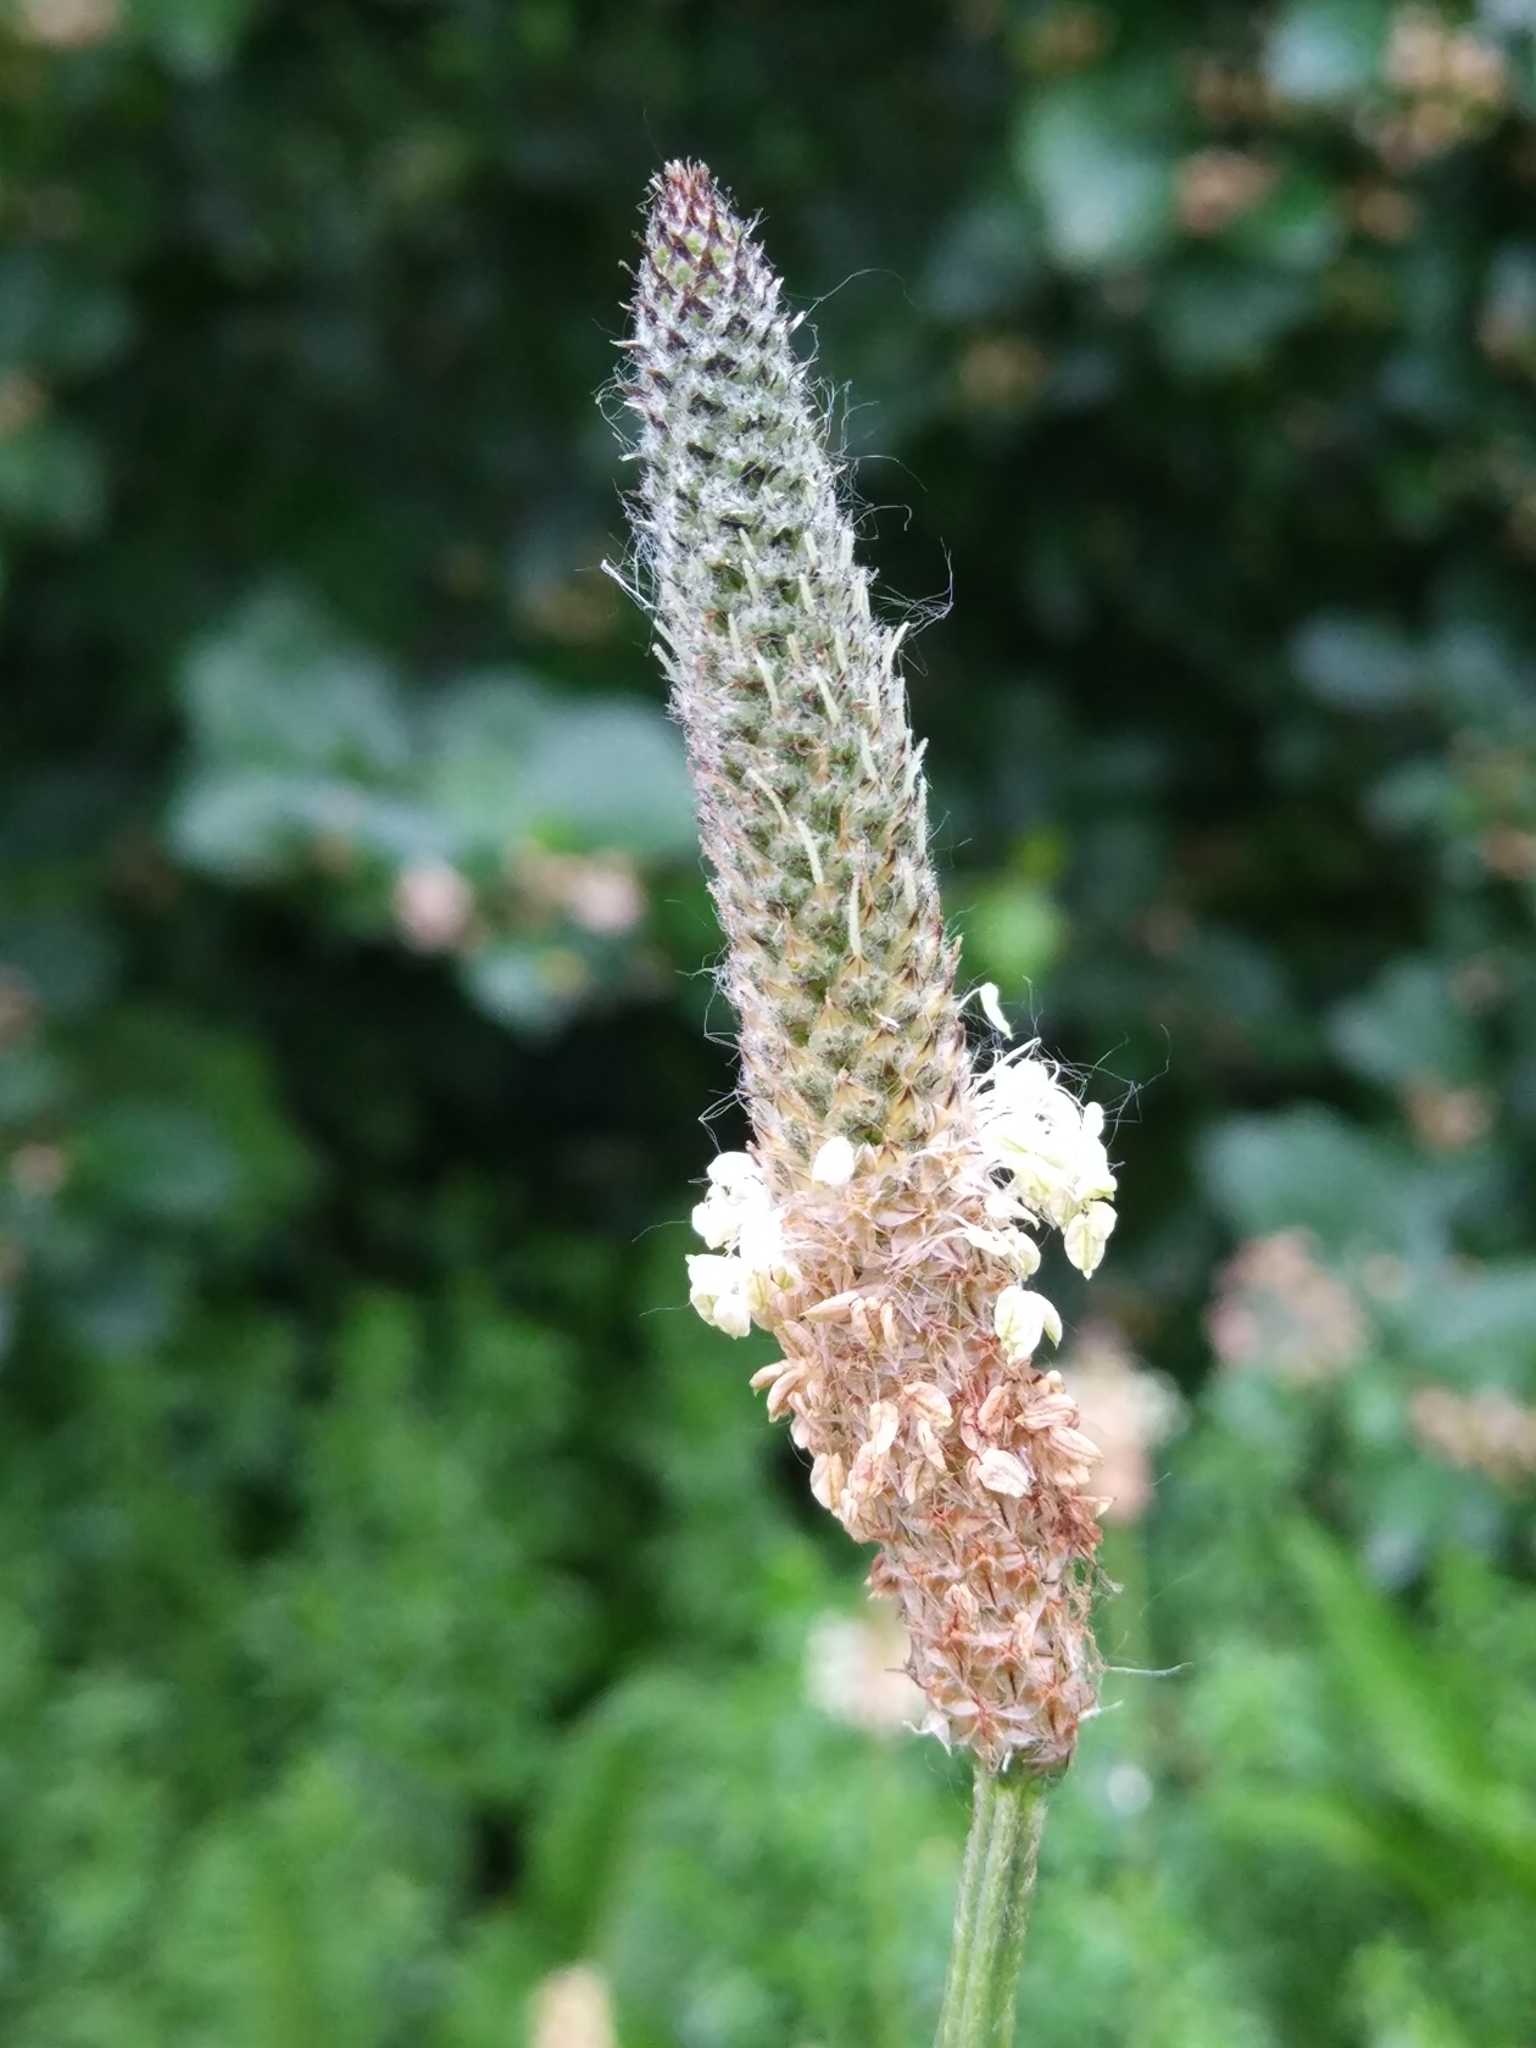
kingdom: Plantae
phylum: Tracheophyta
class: Magnoliopsida
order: Lamiales
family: Plantaginaceae
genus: Plantago
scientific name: Plantago lanceolata
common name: Ribwort plantain
